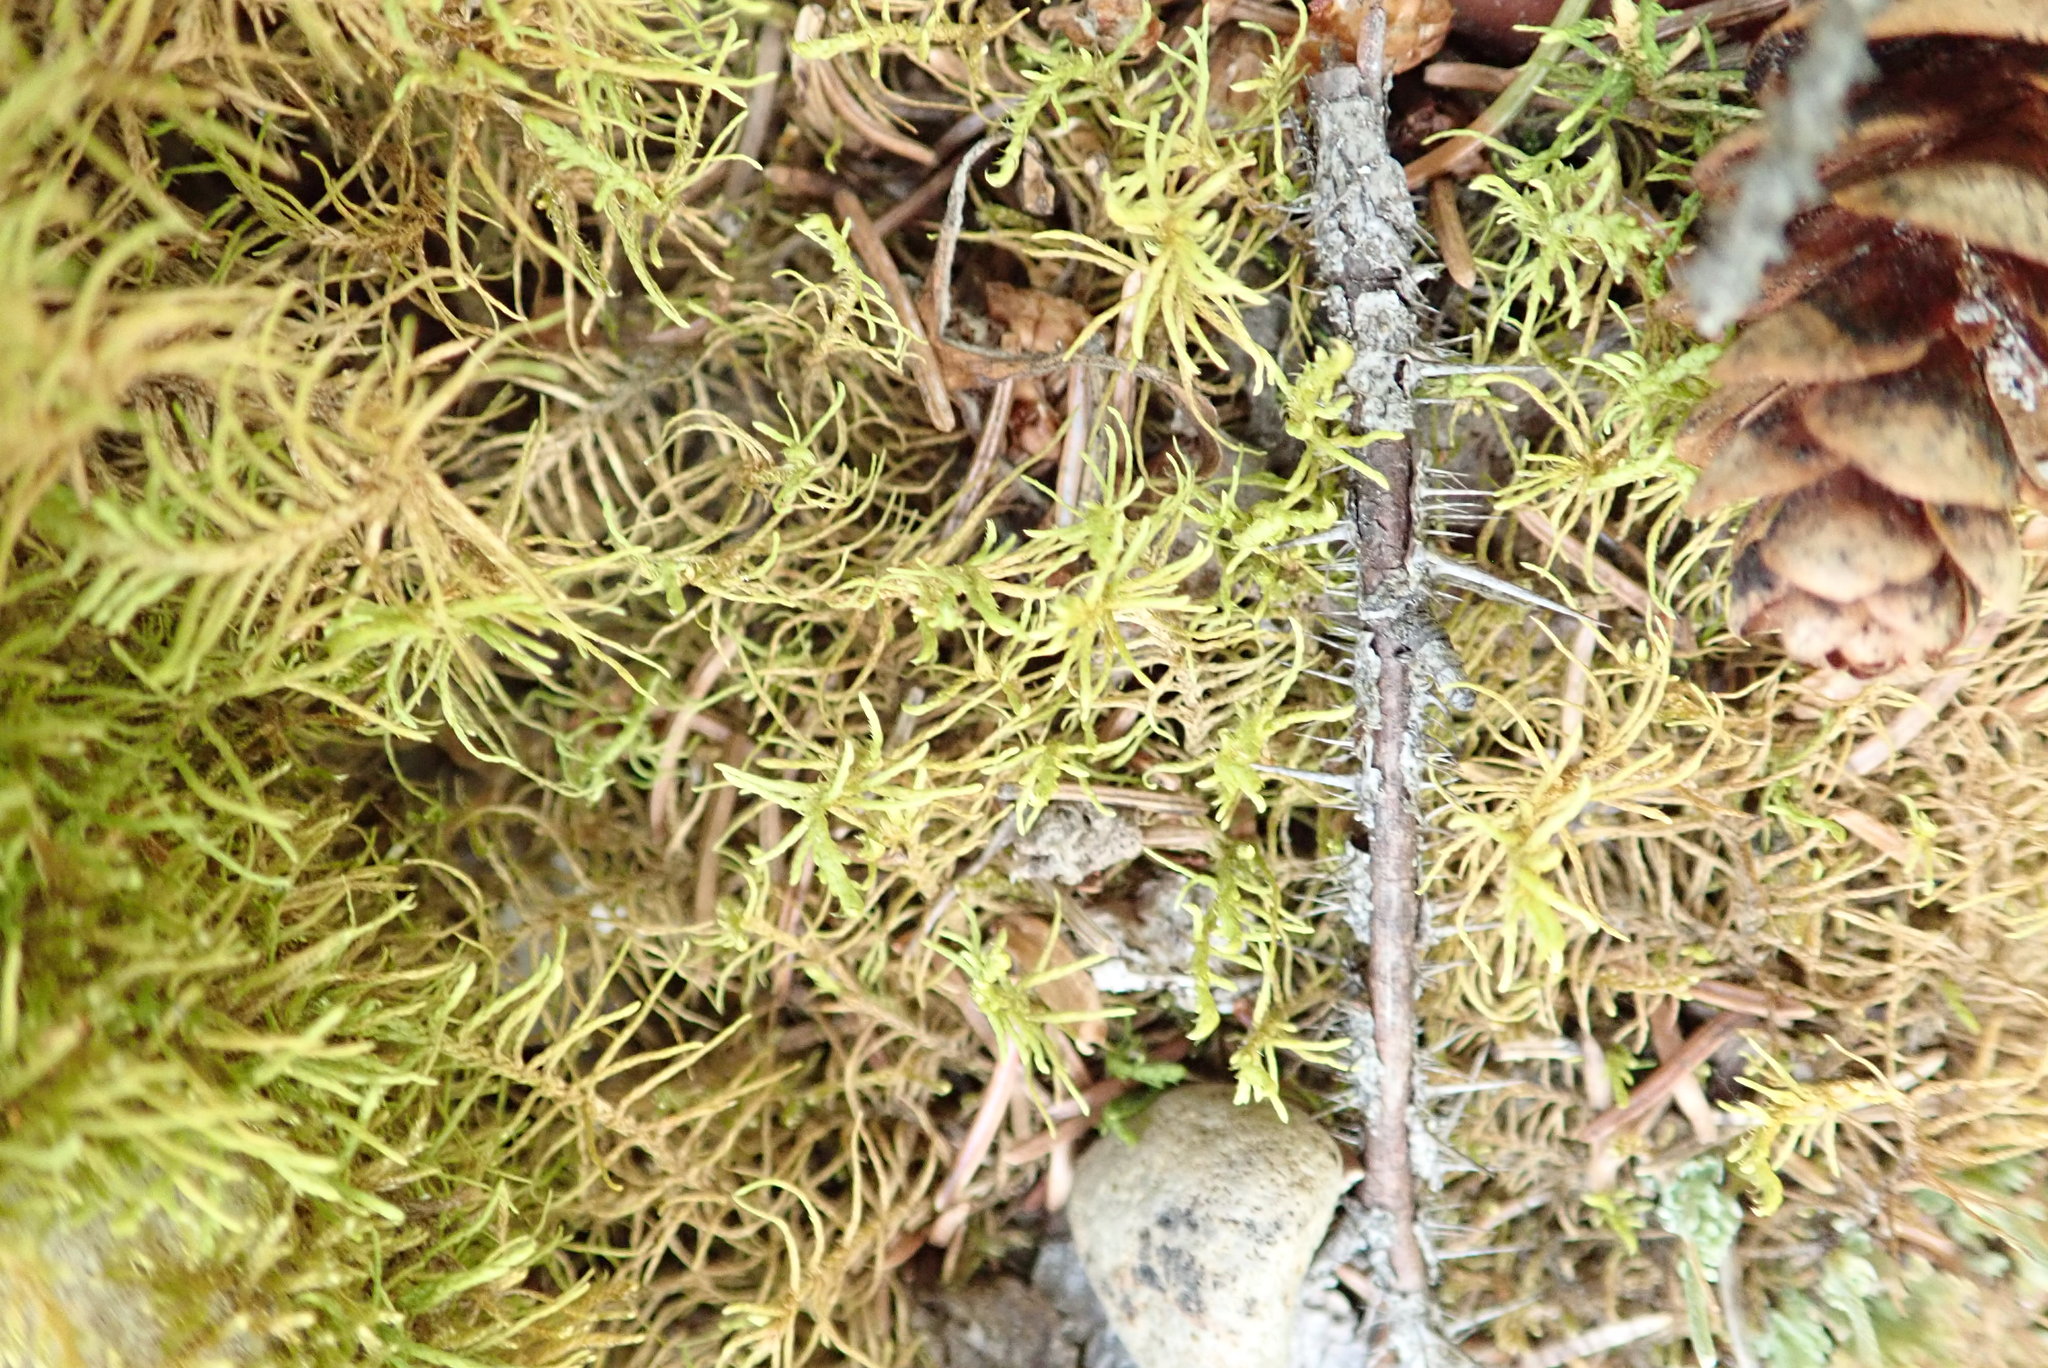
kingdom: Plantae
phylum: Bryophyta
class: Bryopsida
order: Hypnales
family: Thuidiaceae
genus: Abietinella
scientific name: Abietinella abietina
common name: Wiry fern moss
